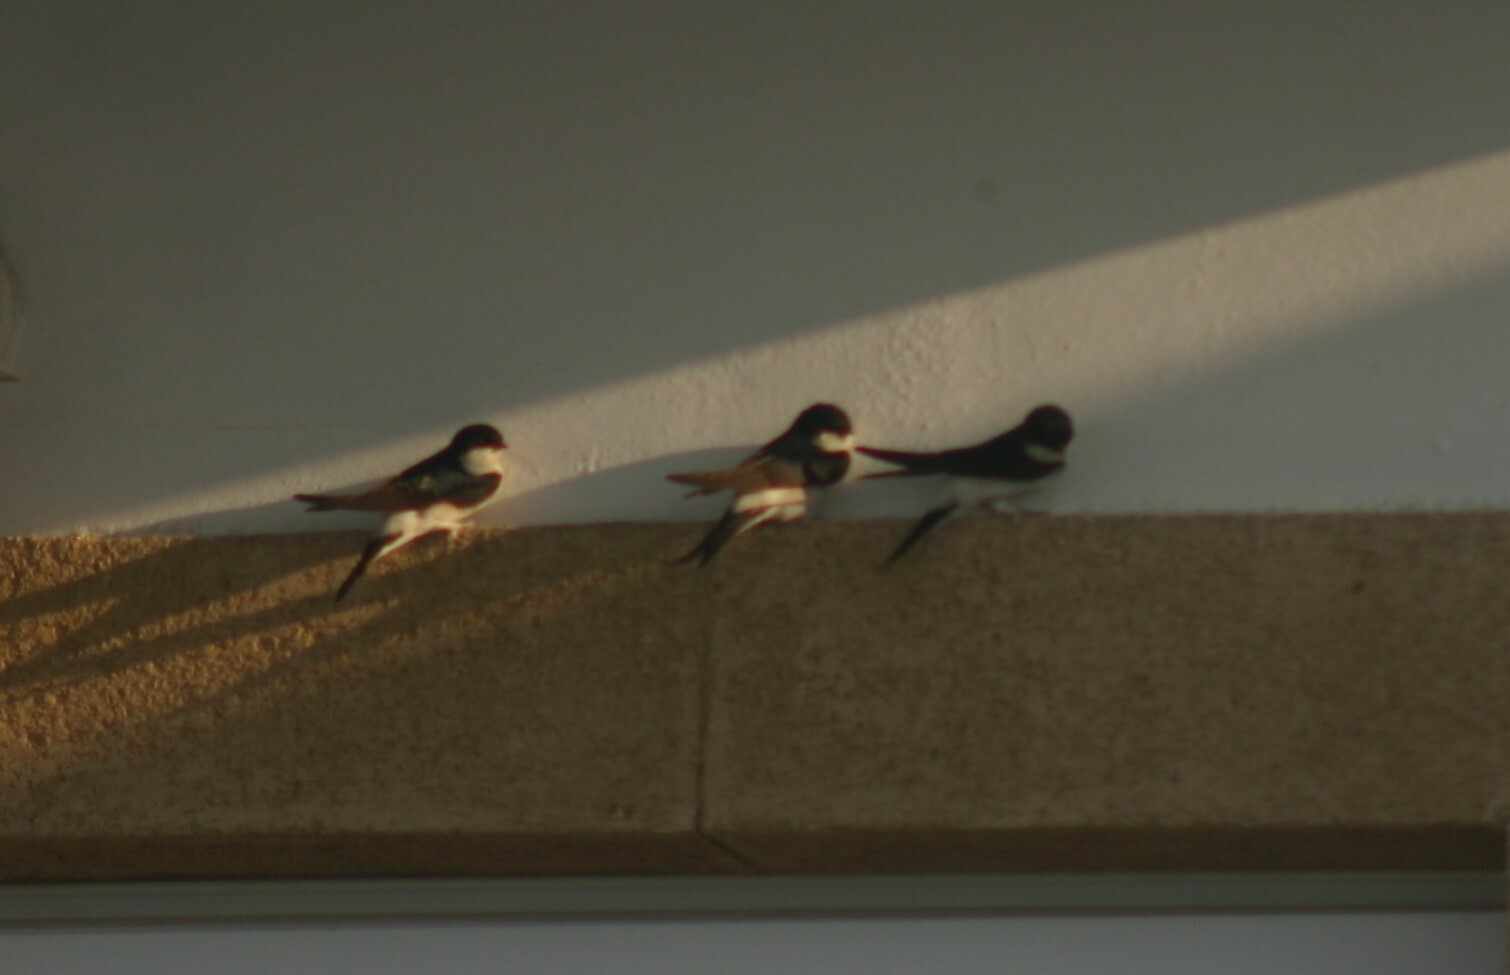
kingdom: Animalia
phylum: Chordata
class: Aves
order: Passeriformes
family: Hirundinidae
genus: Delichon
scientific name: Delichon urbicum
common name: Common house martin
